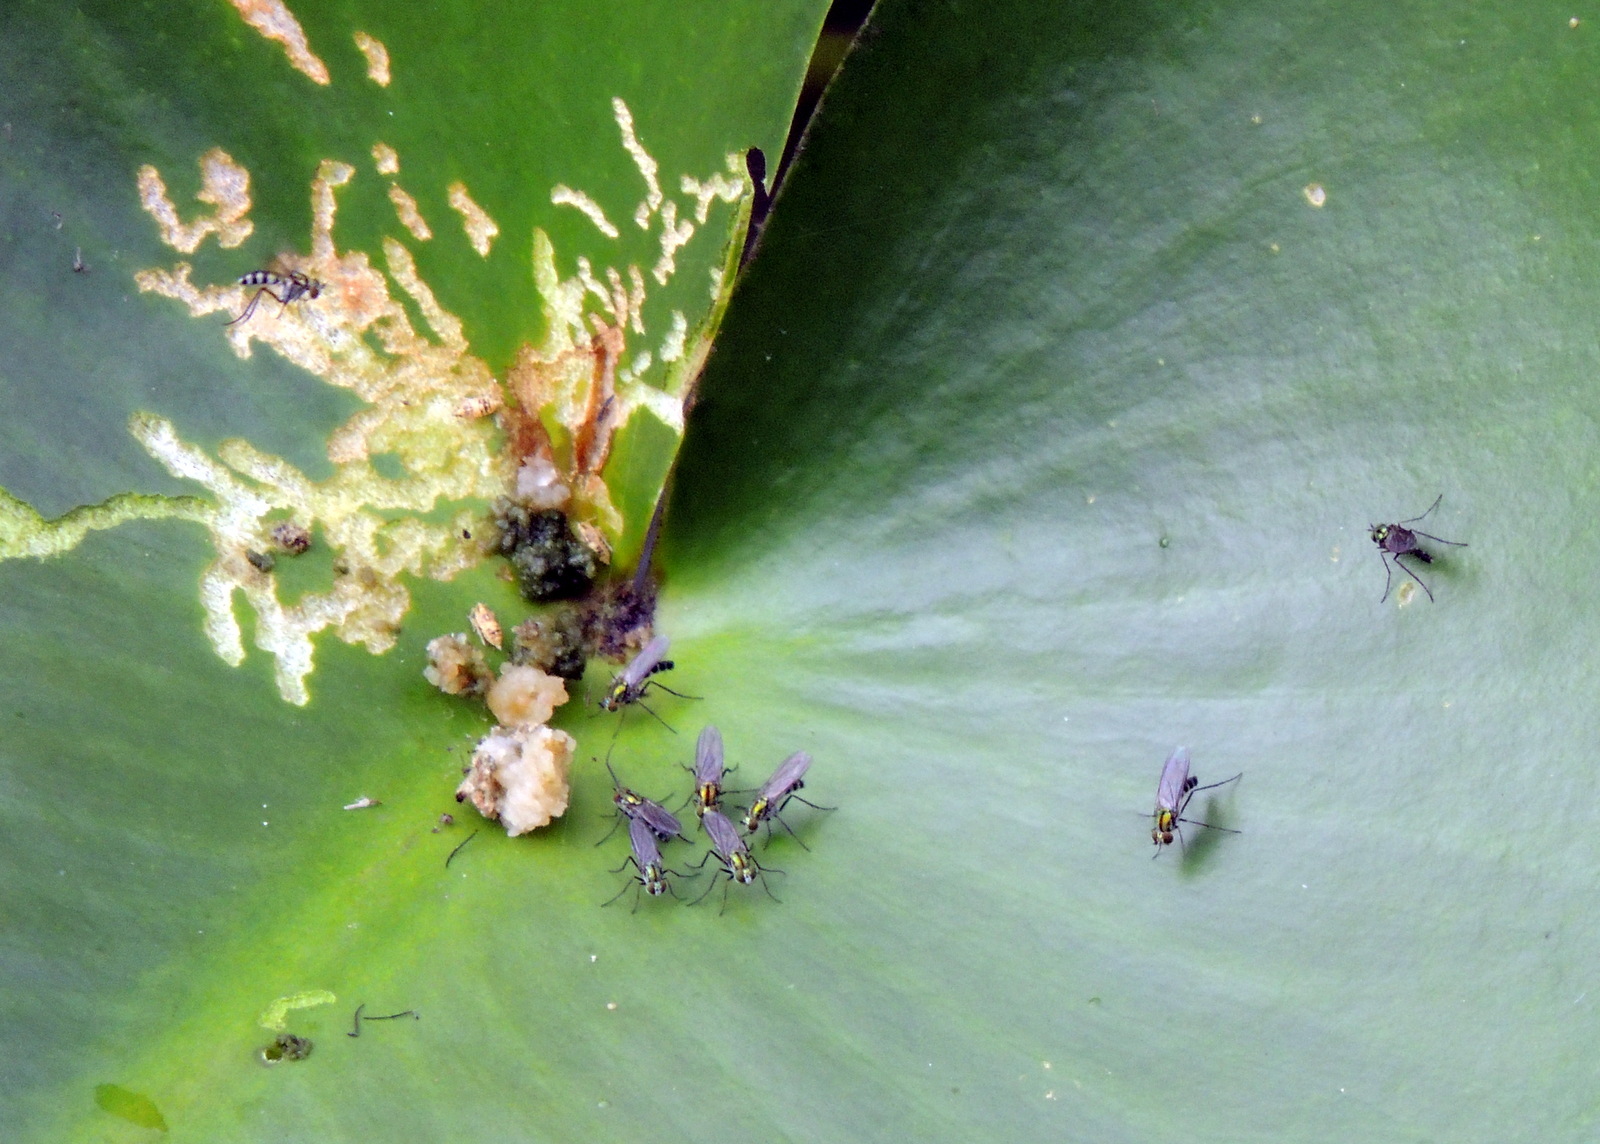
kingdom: Animalia
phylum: Arthropoda
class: Insecta
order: Diptera
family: Dolichopodidae
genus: Plagioneurus
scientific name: Plagioneurus univittatus
